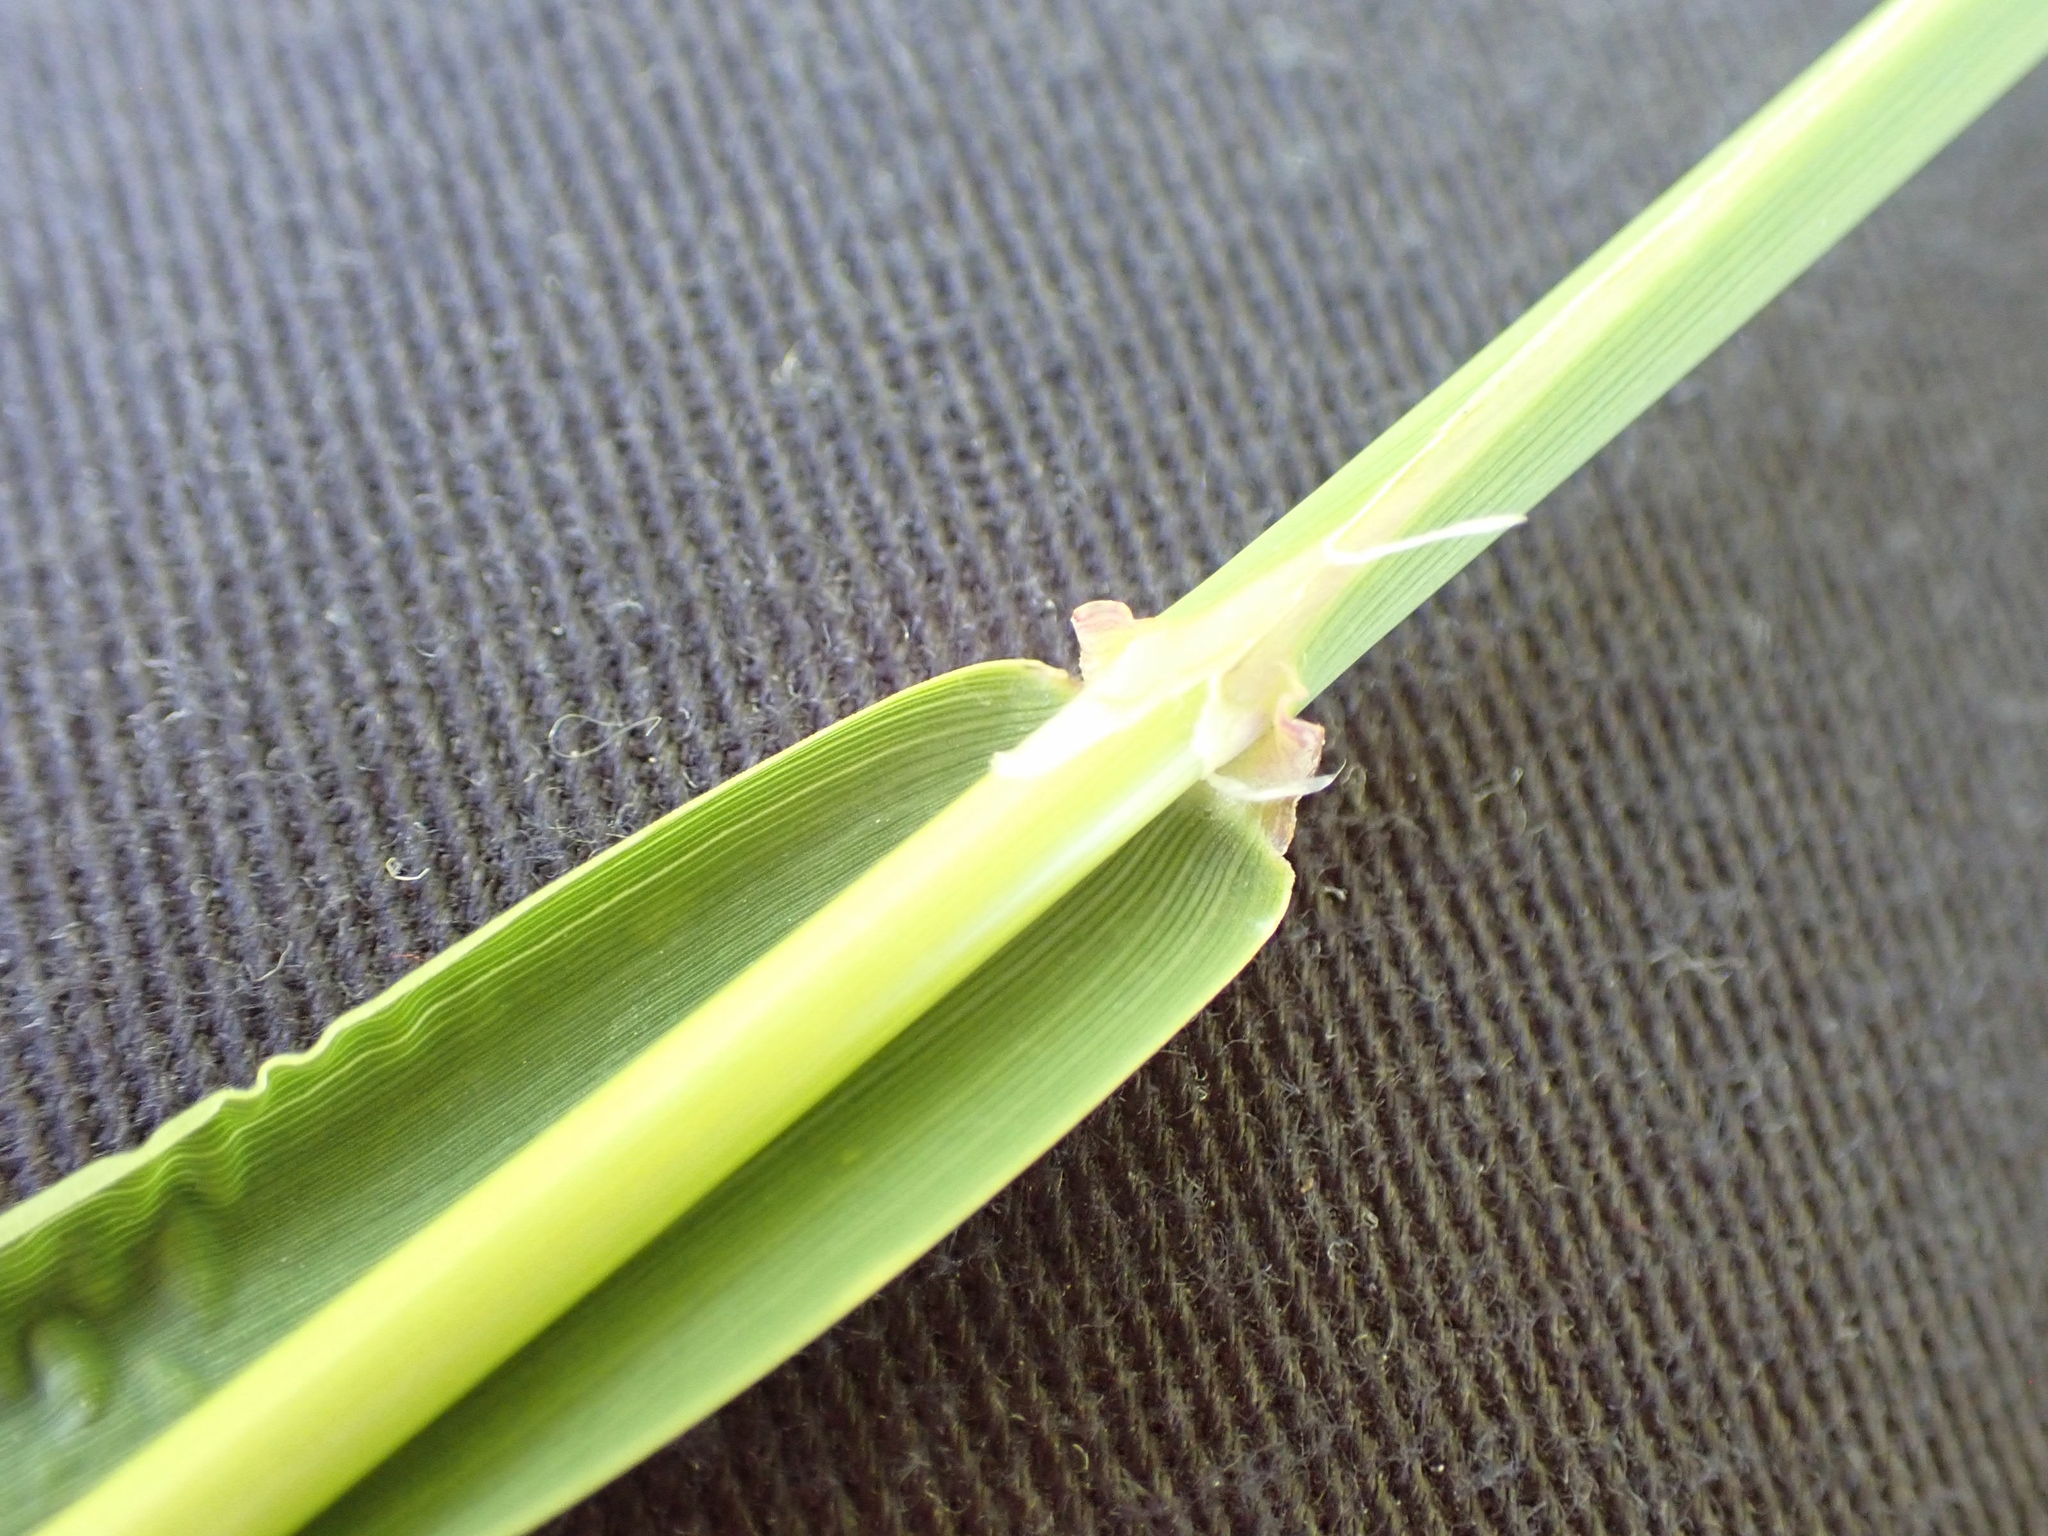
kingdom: Plantae
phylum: Tracheophyta
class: Liliopsida
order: Poales
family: Poaceae
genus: Phalaris
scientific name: Phalaris arundinacea
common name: Reed canary-grass
